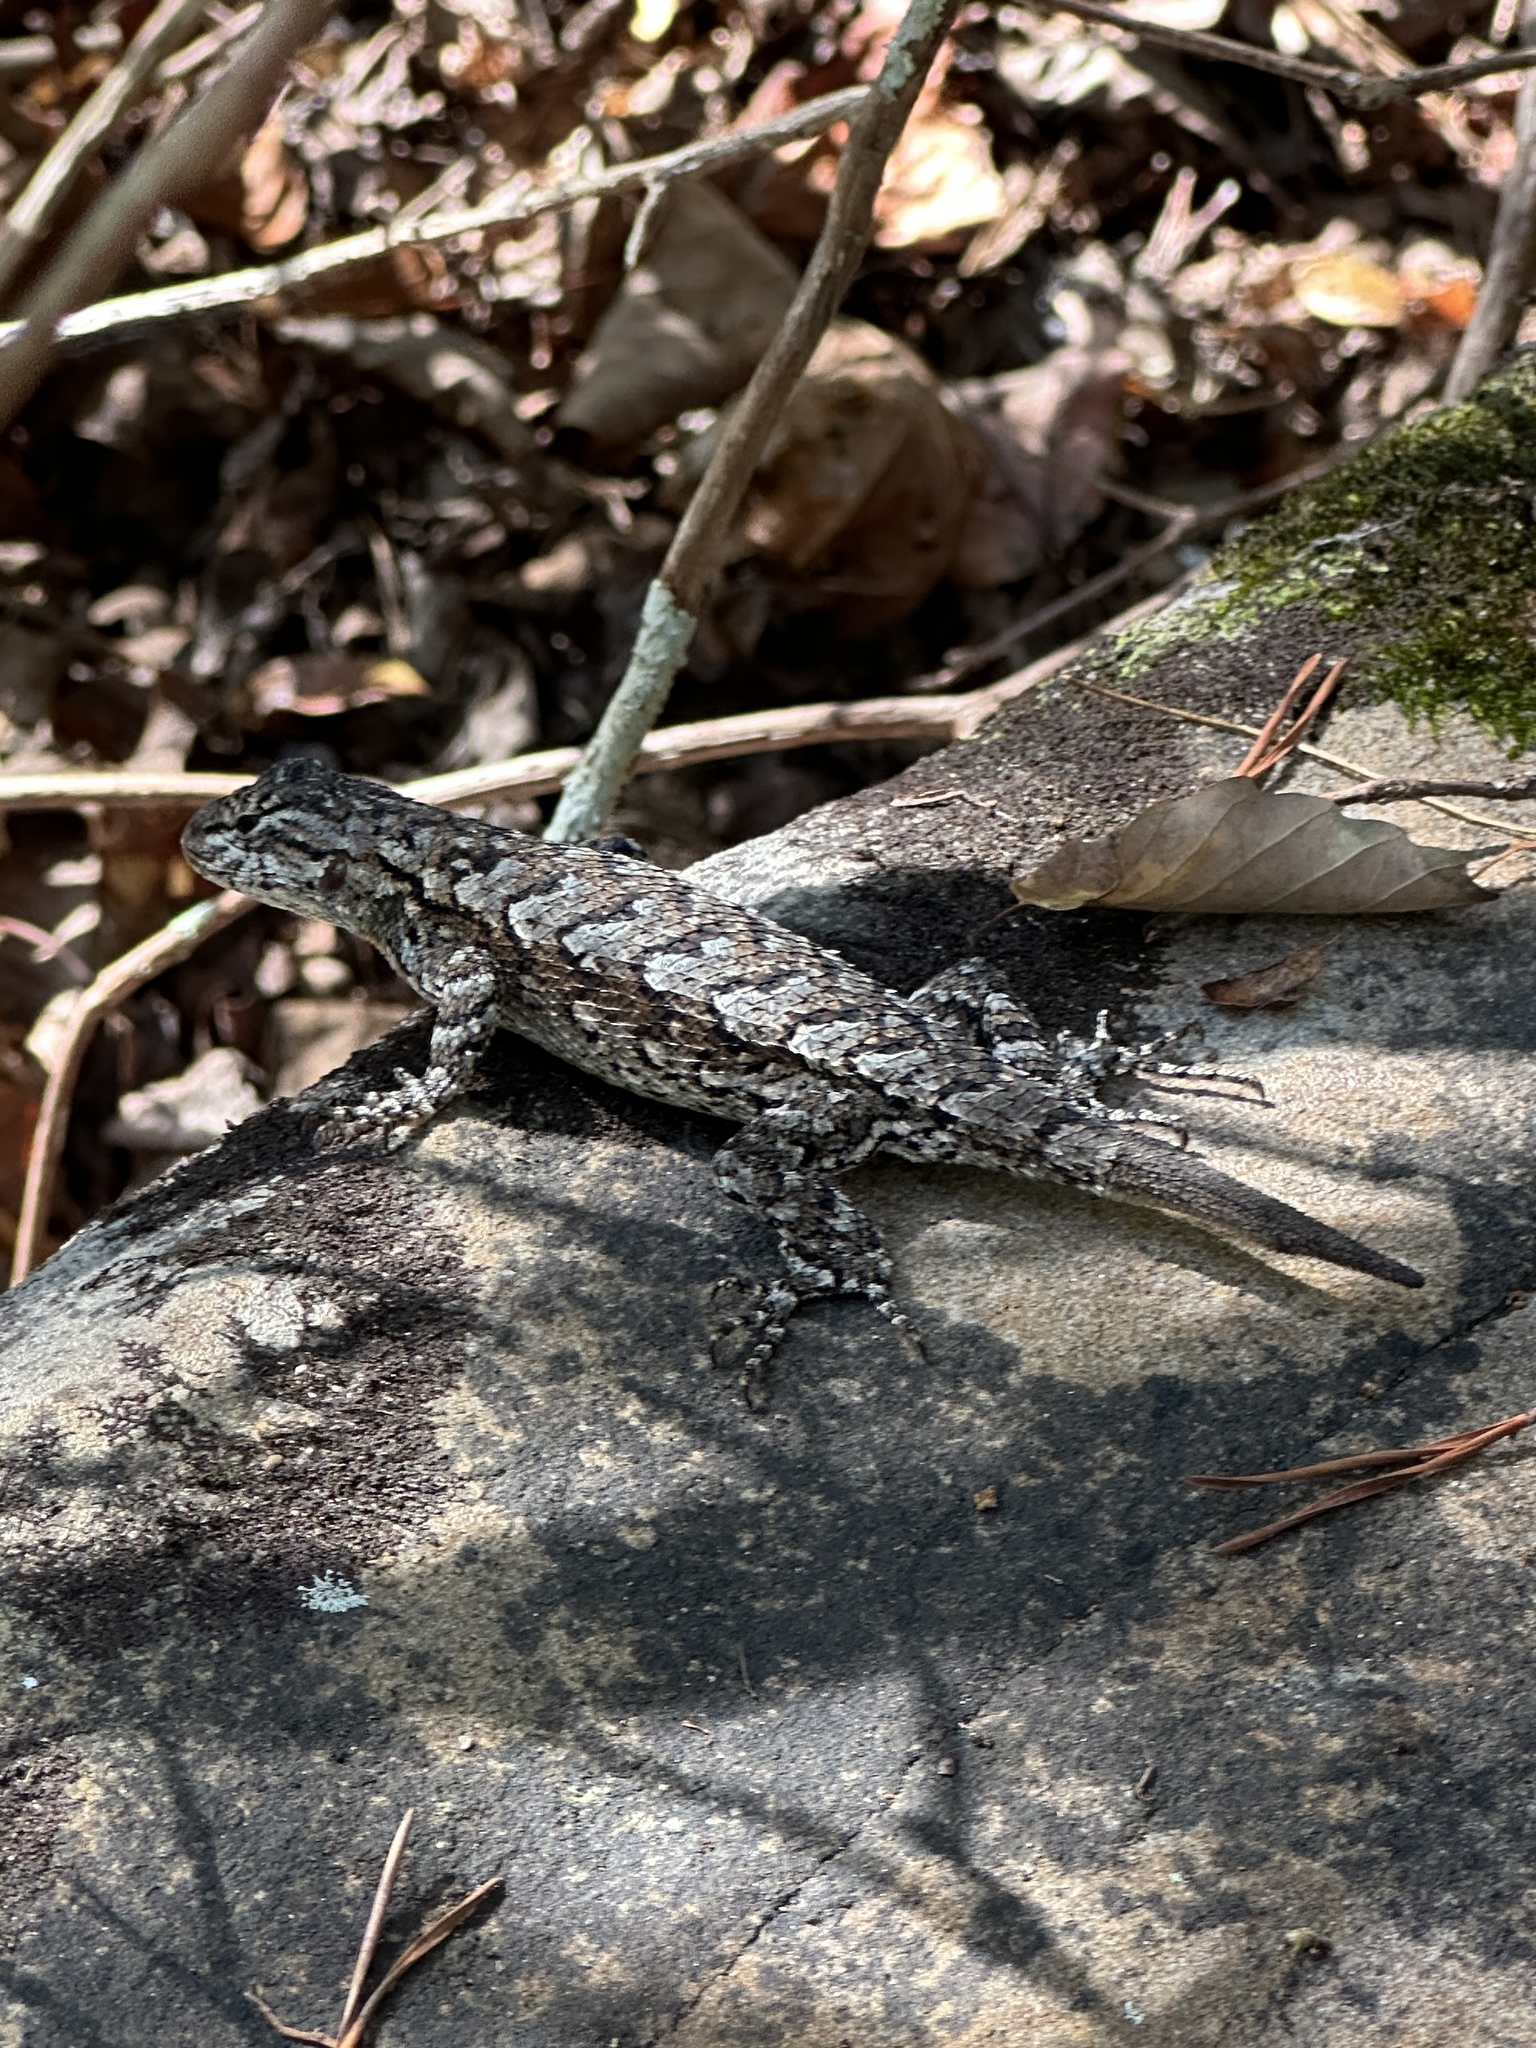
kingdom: Animalia
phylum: Chordata
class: Squamata
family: Phrynosomatidae
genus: Sceloporus
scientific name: Sceloporus undulatus
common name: Eastern fence lizard
